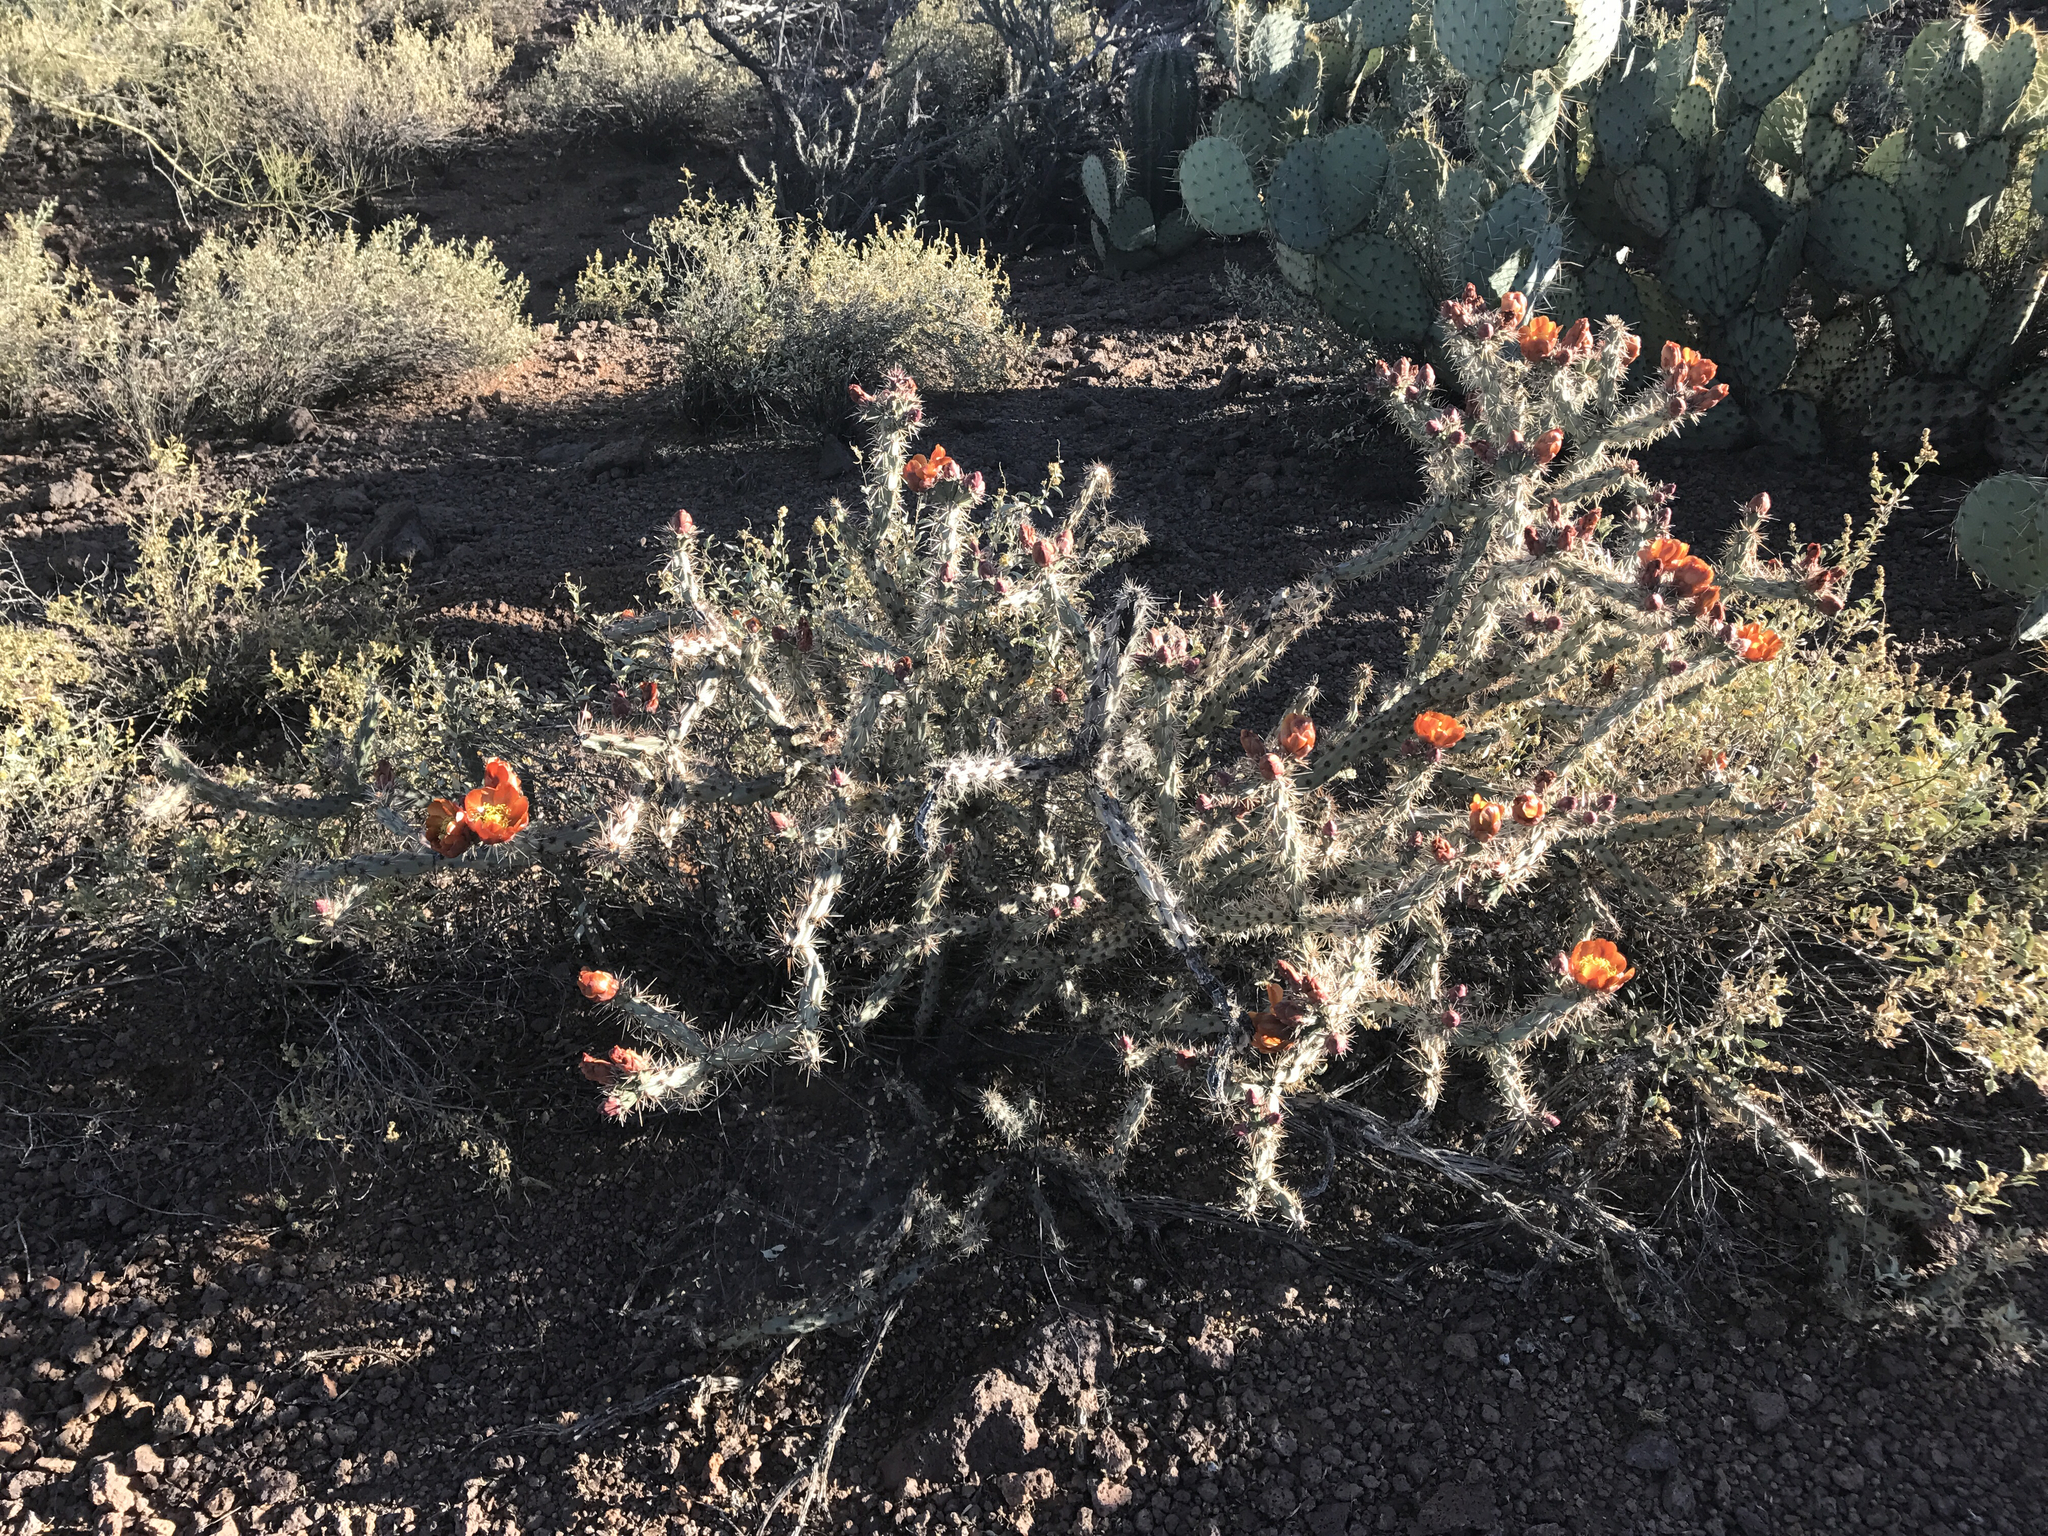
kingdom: Plantae
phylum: Tracheophyta
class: Magnoliopsida
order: Caryophyllales
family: Cactaceae
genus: Cylindropuntia
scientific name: Cylindropuntia acanthocarpa
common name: Buckhorn cholla
